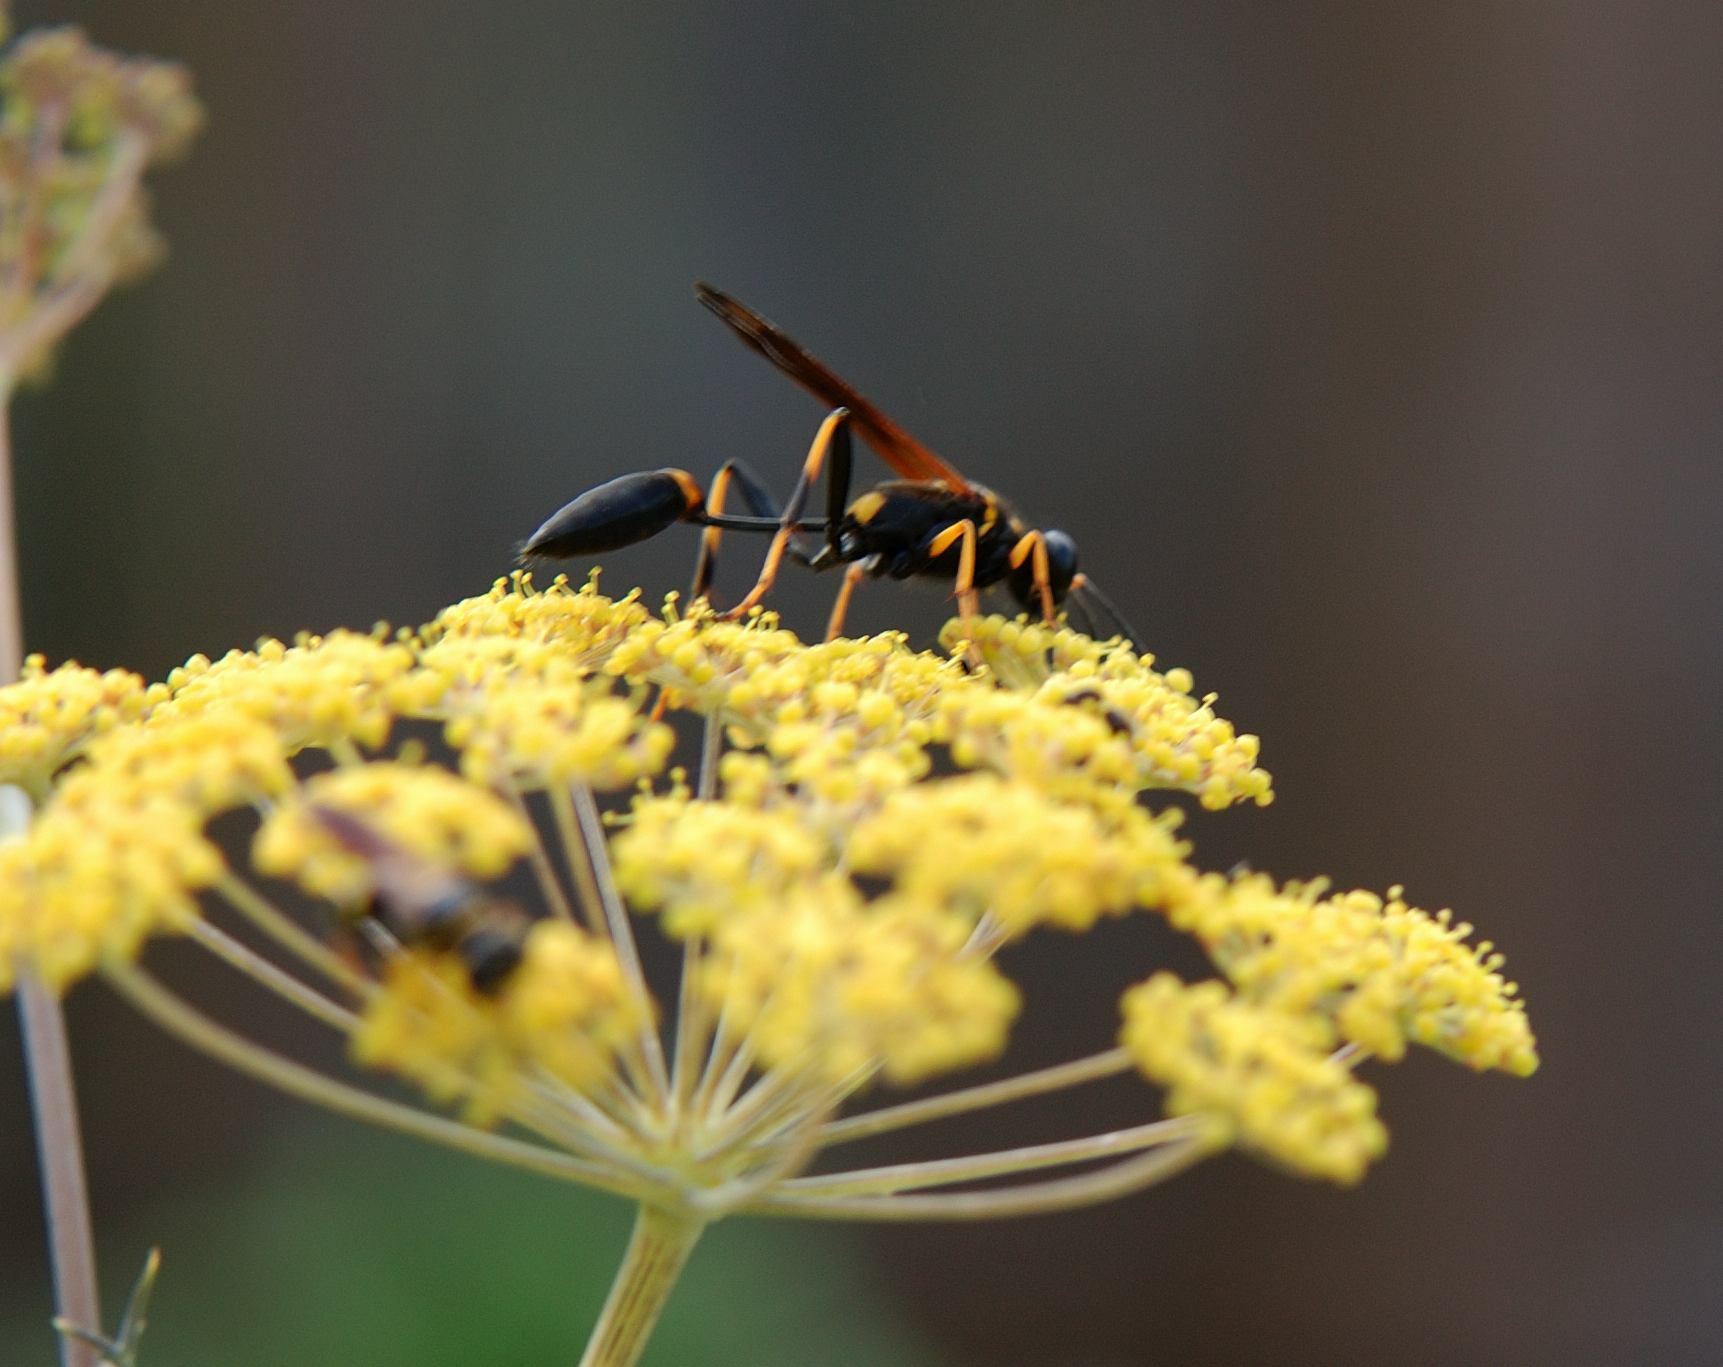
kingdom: Animalia
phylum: Arthropoda
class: Insecta
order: Hymenoptera
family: Sphecidae
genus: Sceliphron
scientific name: Sceliphron caementarium
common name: Mud dauber
